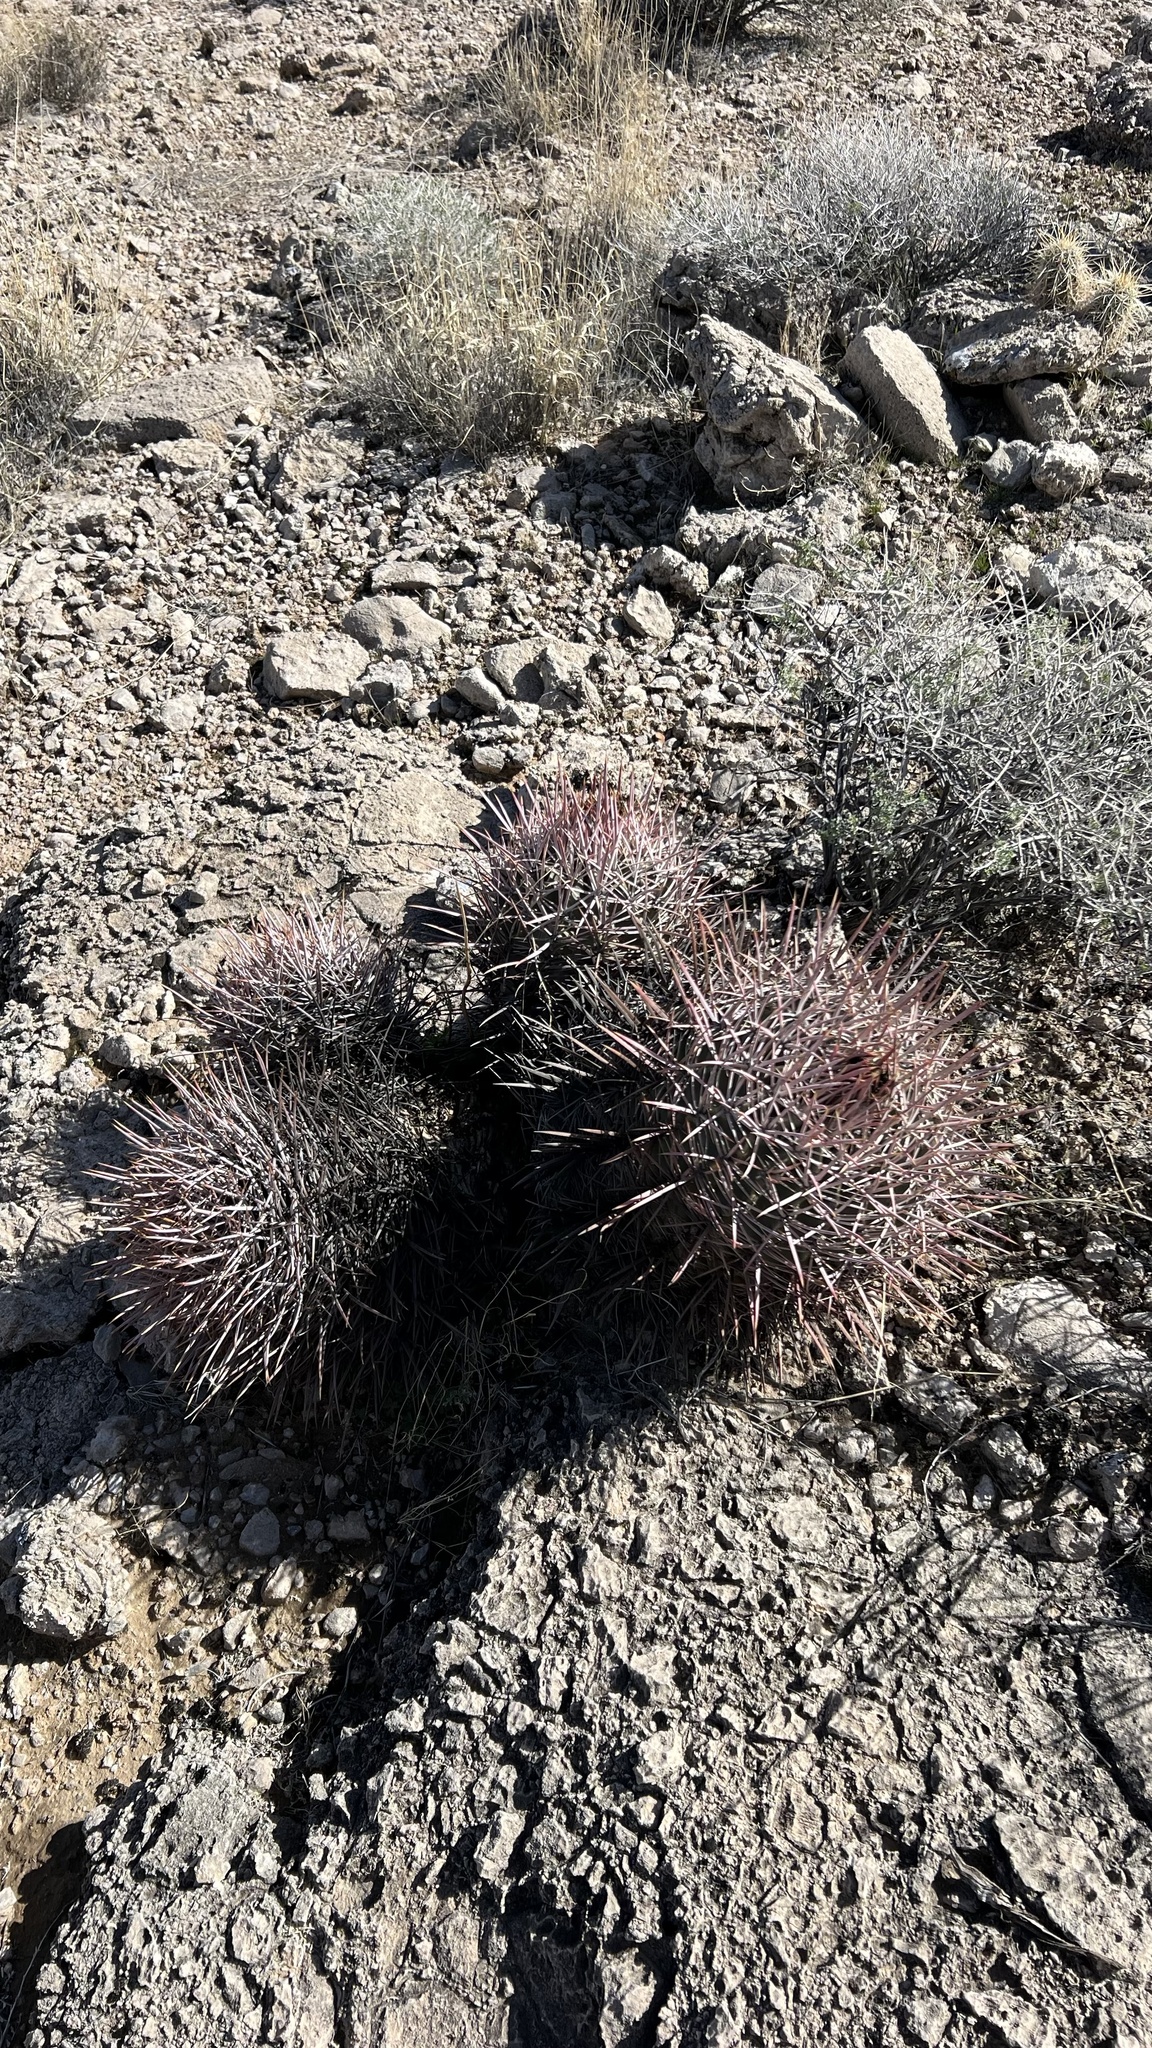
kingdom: Plantae
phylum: Tracheophyta
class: Magnoliopsida
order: Caryophyllales
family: Cactaceae
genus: Echinocactus
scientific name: Echinocactus polycephalus
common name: Cottontop cactus
